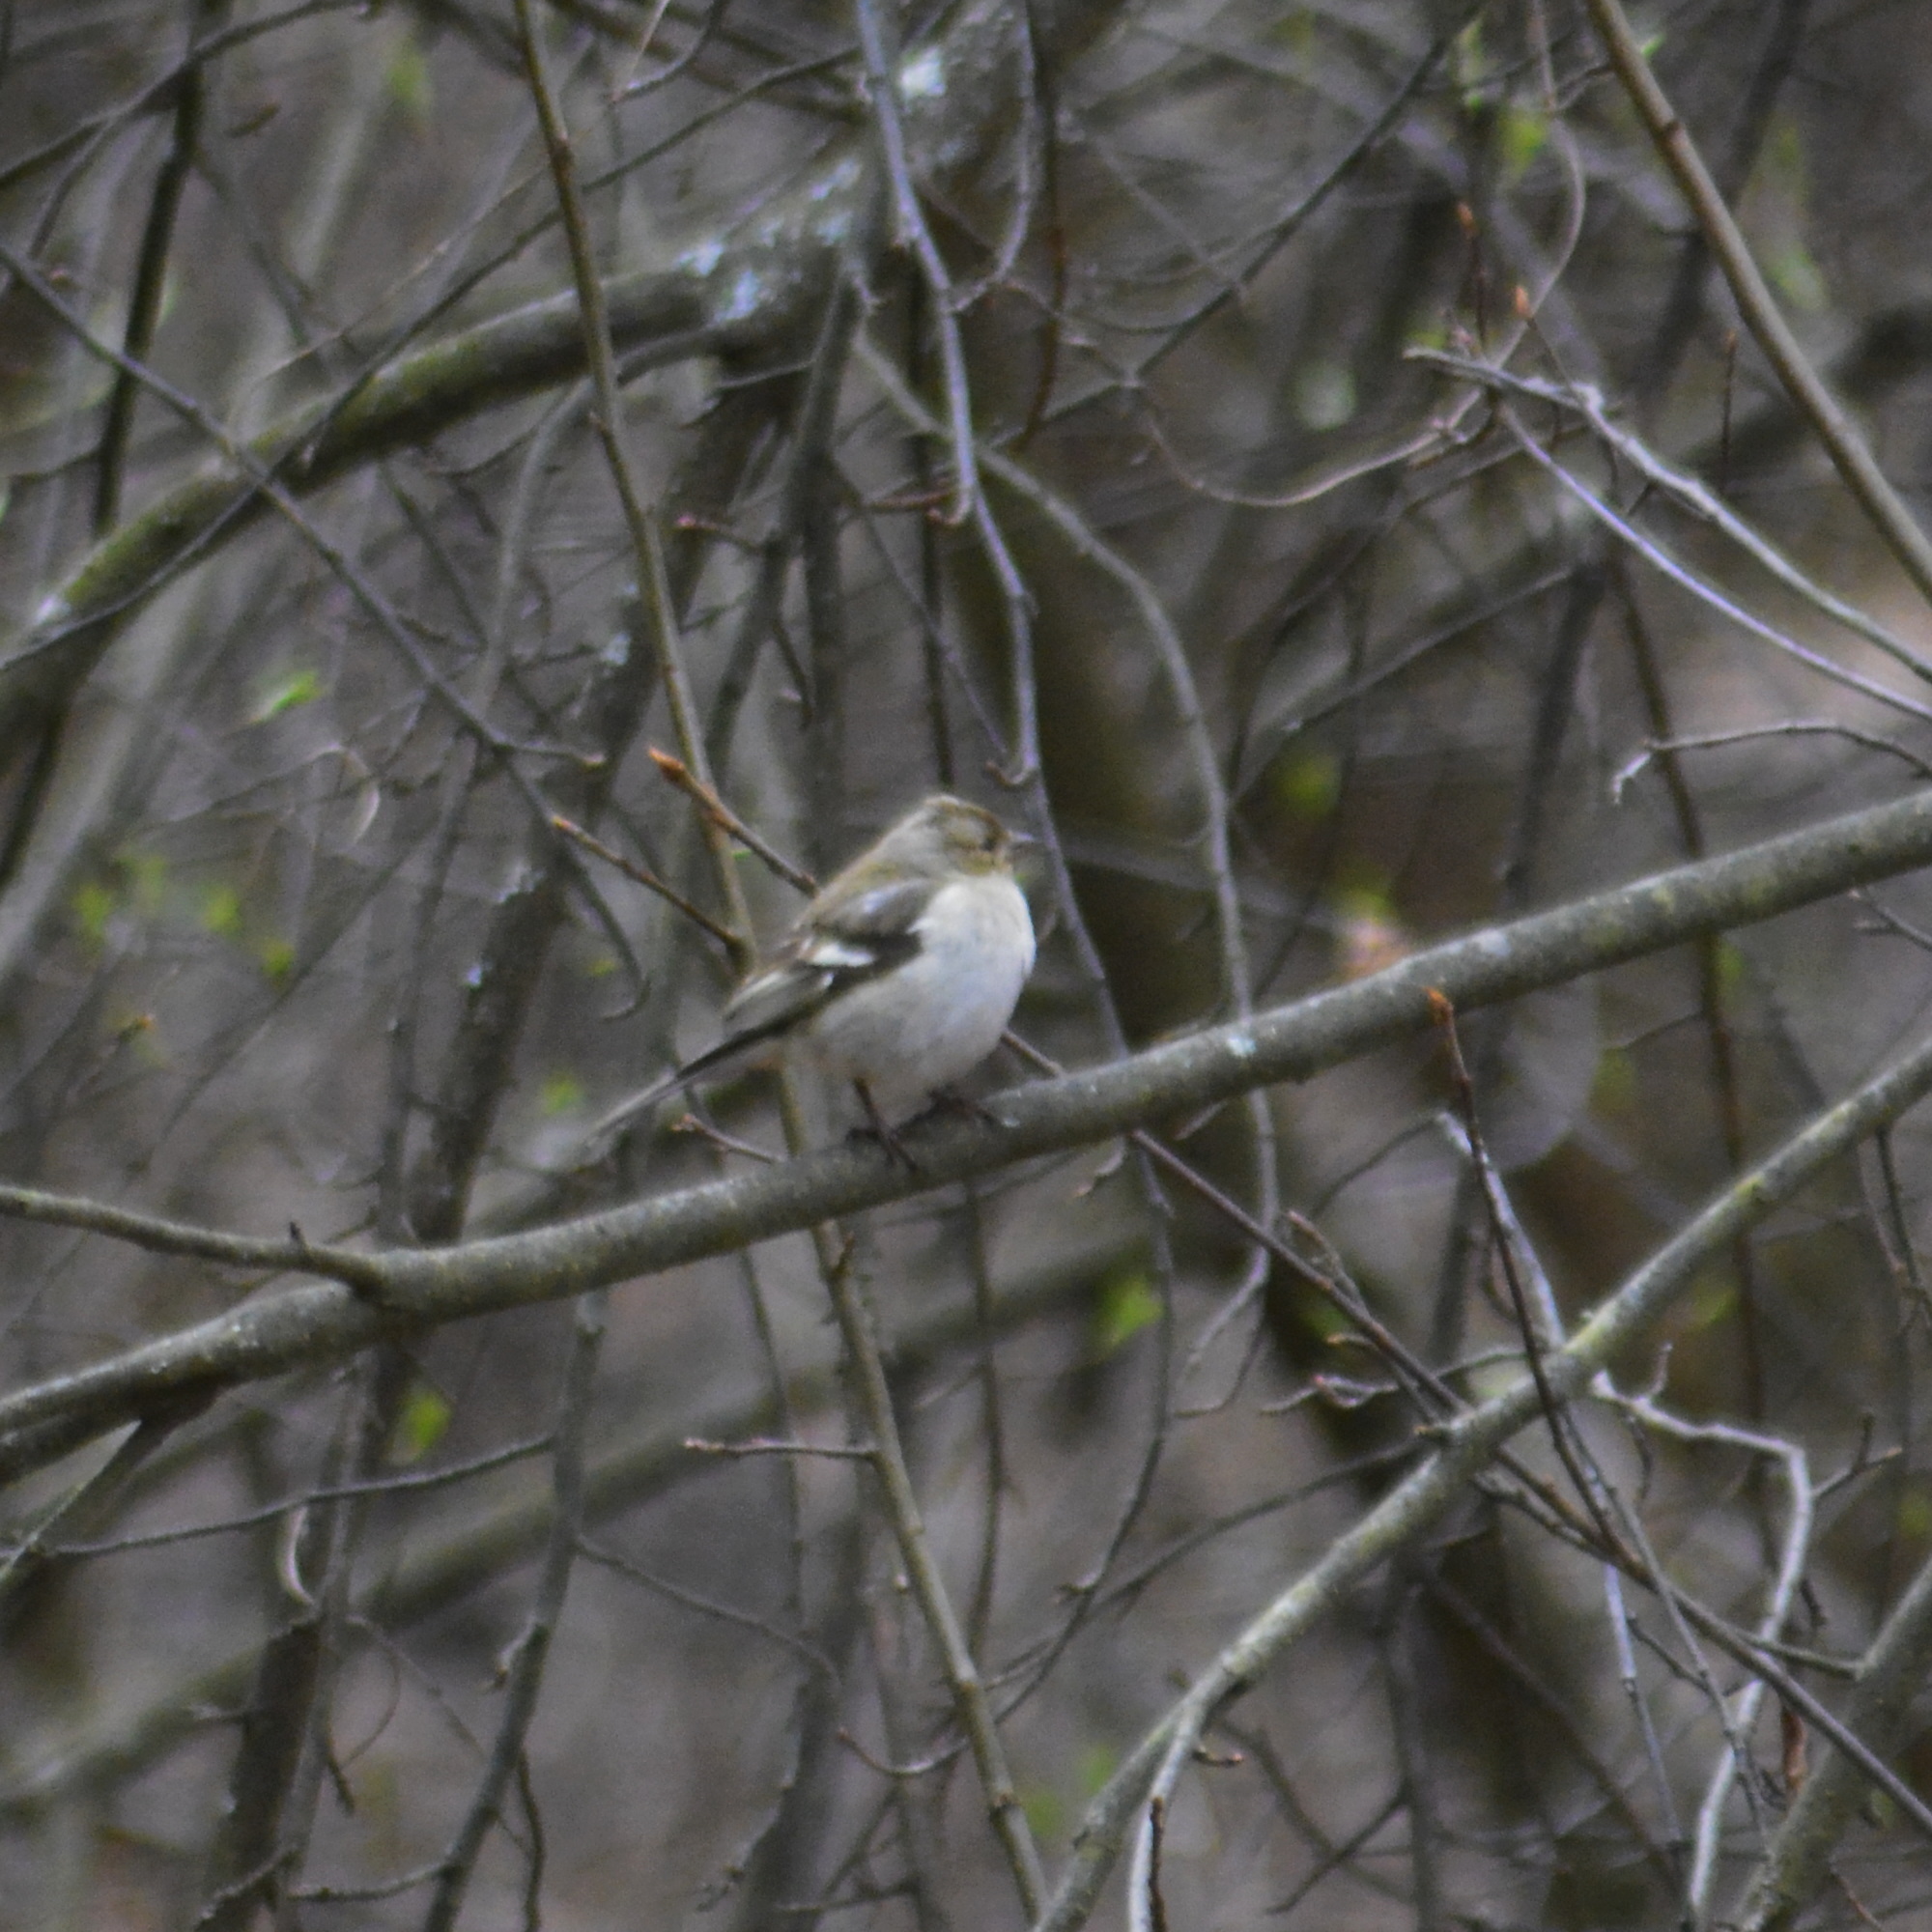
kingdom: Animalia
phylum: Chordata
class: Aves
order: Passeriformes
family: Fringillidae
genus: Fringilla
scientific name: Fringilla coelebs
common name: Common chaffinch
